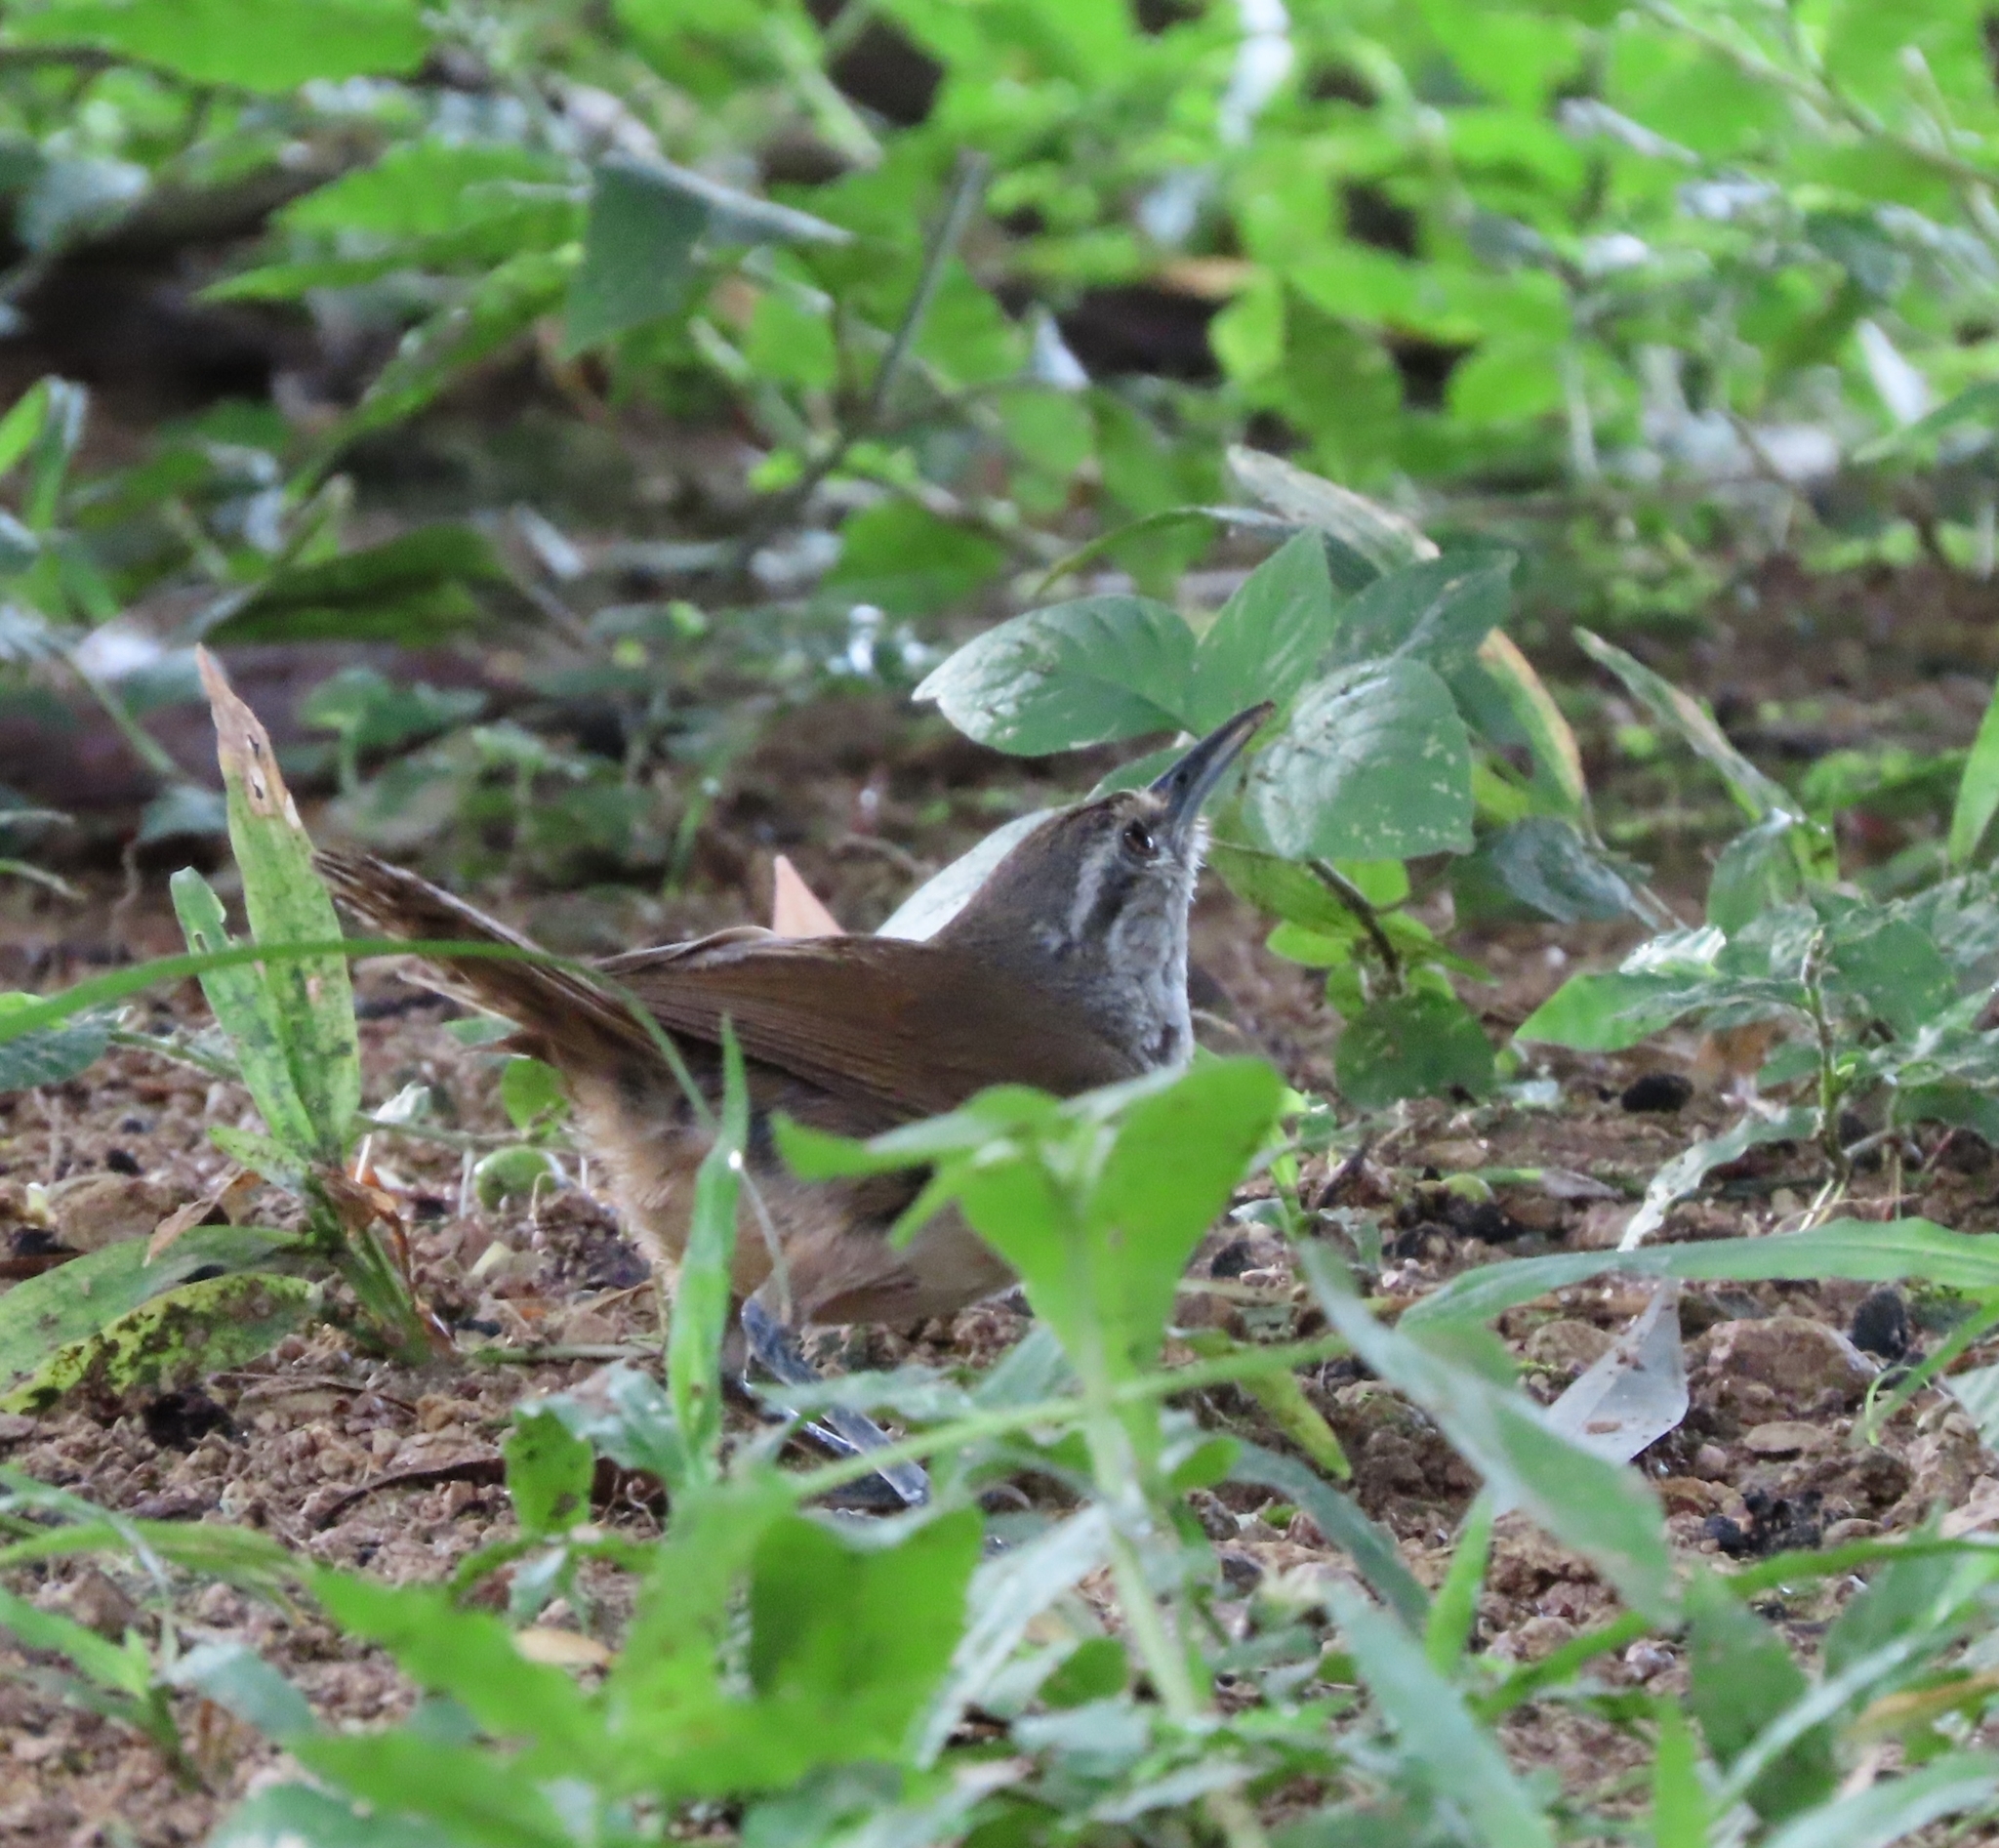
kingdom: Animalia
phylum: Chordata
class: Aves
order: Passeriformes
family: Troglodytidae
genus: Cantorchilus
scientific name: Cantorchilus modestus
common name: Cabanis's wren
